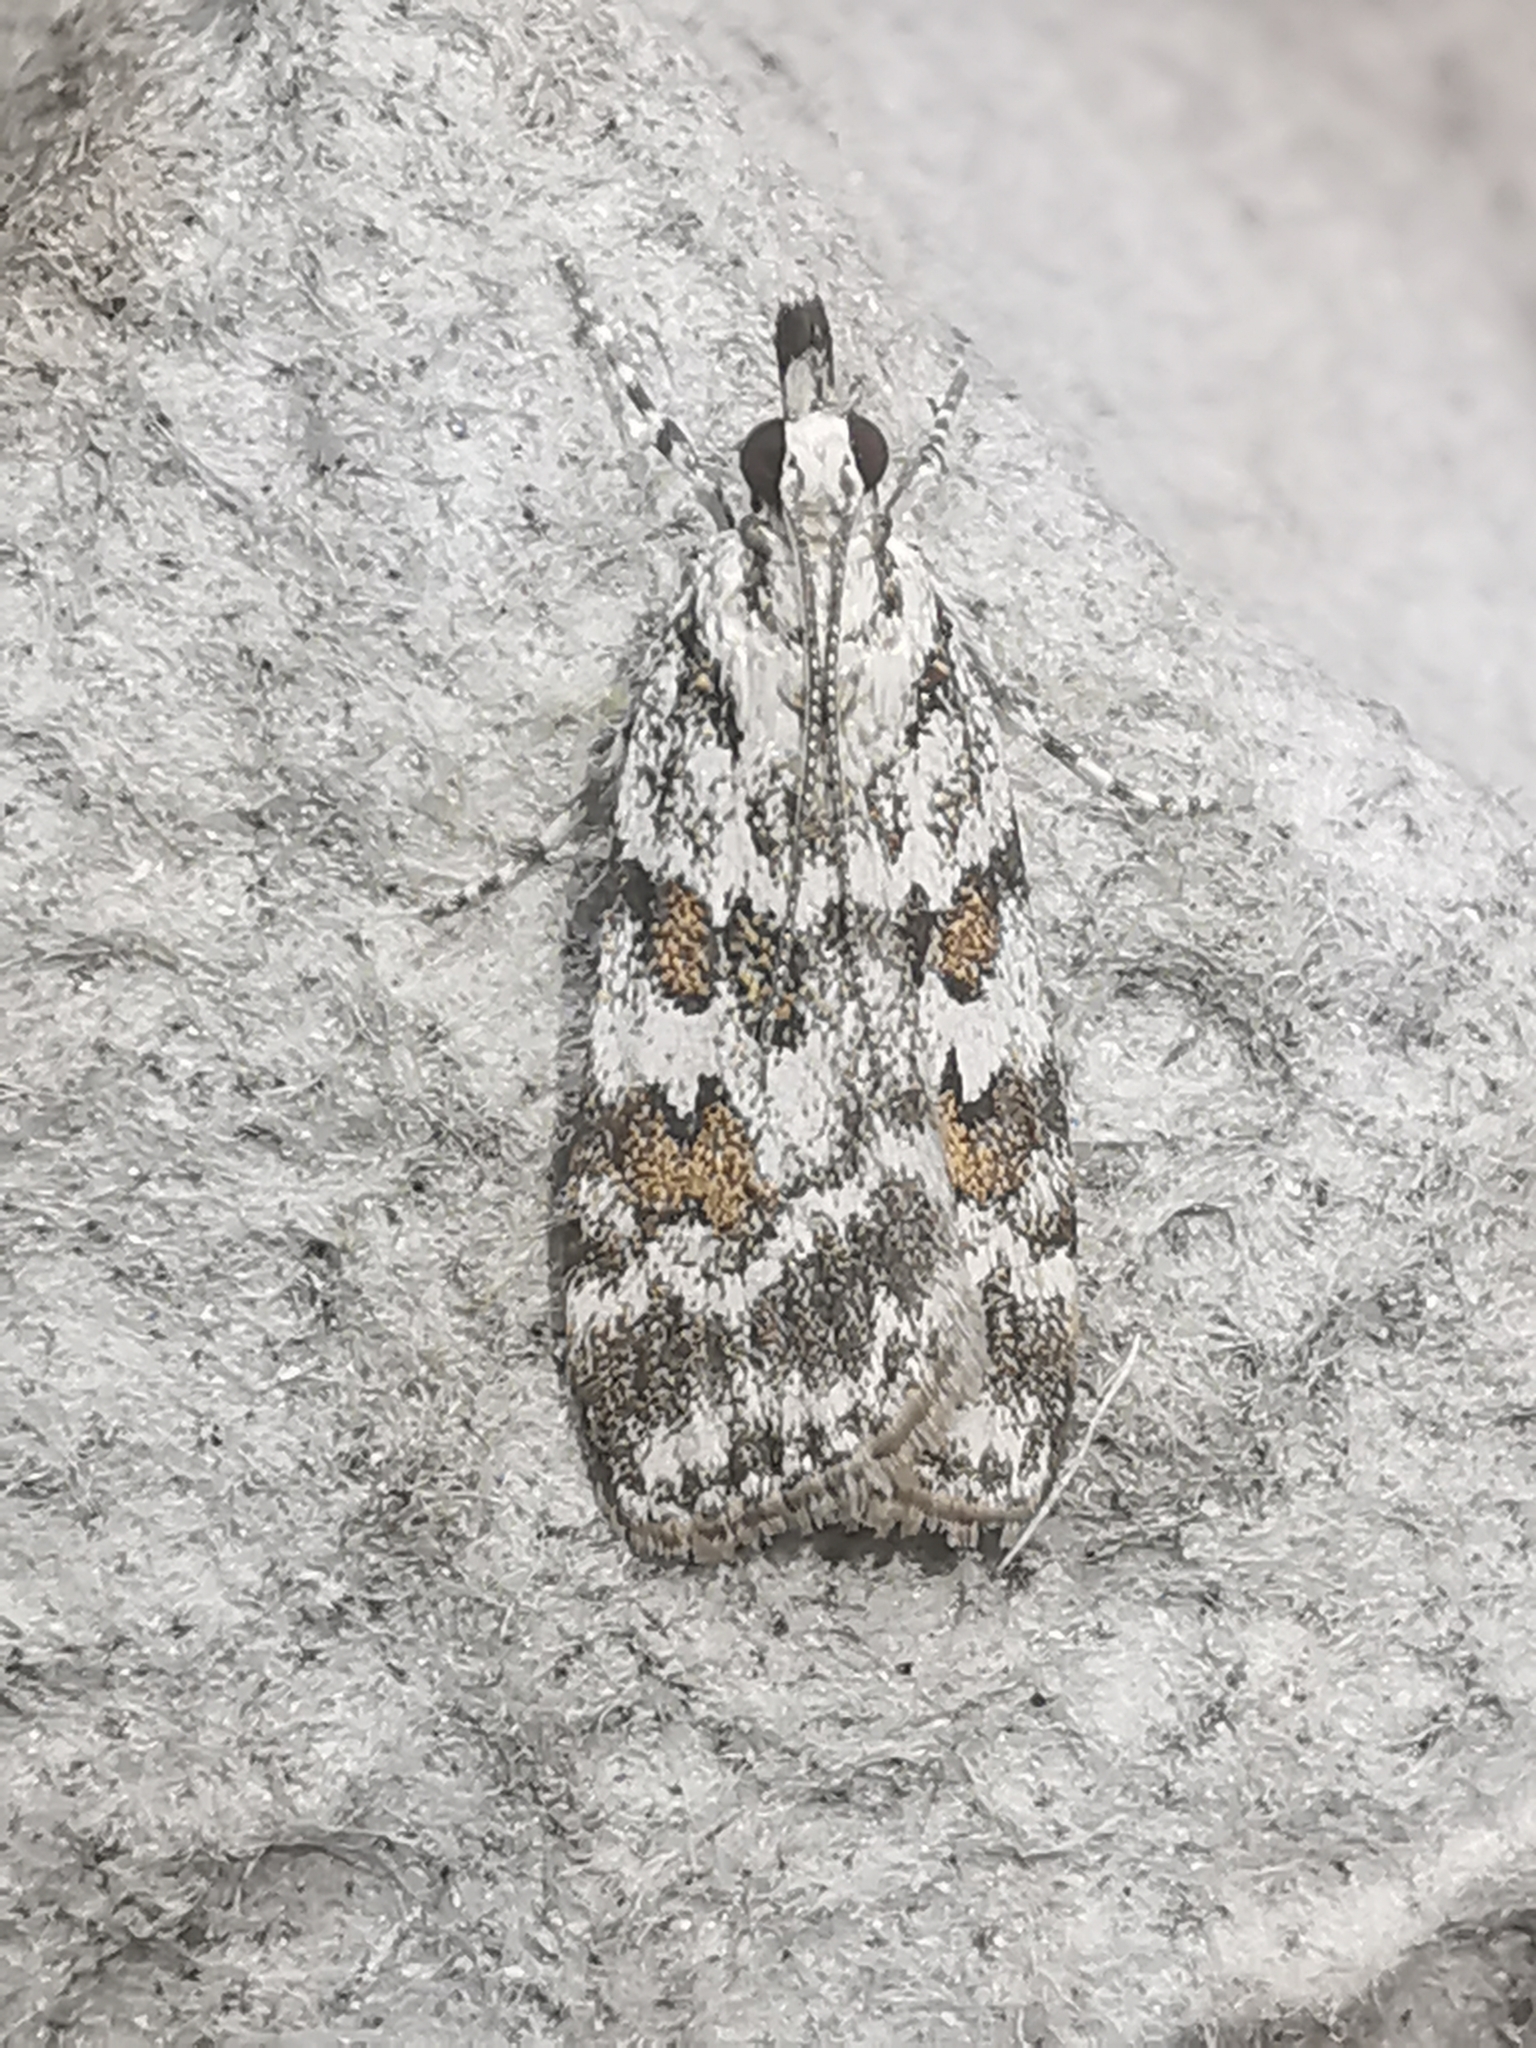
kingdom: Animalia
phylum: Arthropoda
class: Insecta
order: Lepidoptera
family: Crambidae
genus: Scoparia
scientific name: Scoparia pyralella
